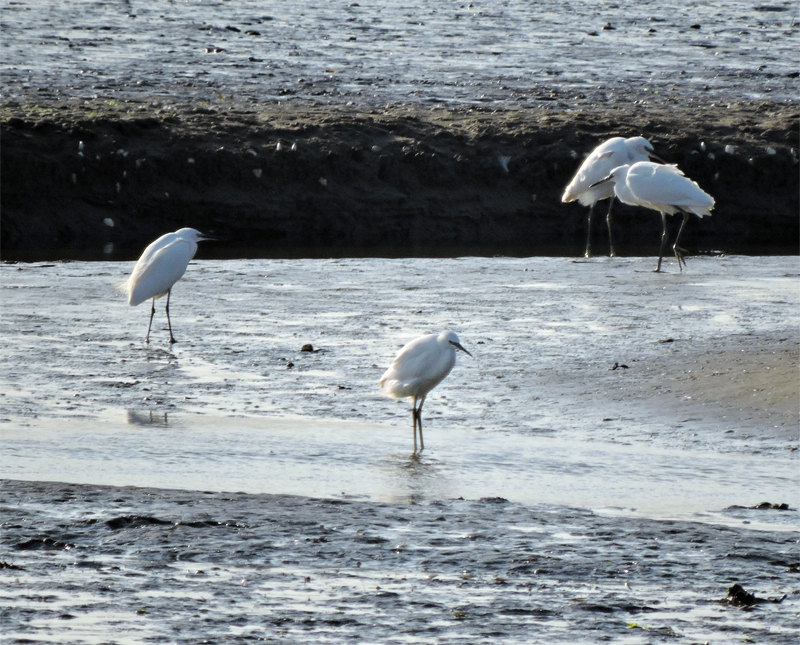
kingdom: Animalia
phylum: Chordata
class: Aves
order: Pelecaniformes
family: Ardeidae
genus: Egretta
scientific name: Egretta garzetta
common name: Little egret
